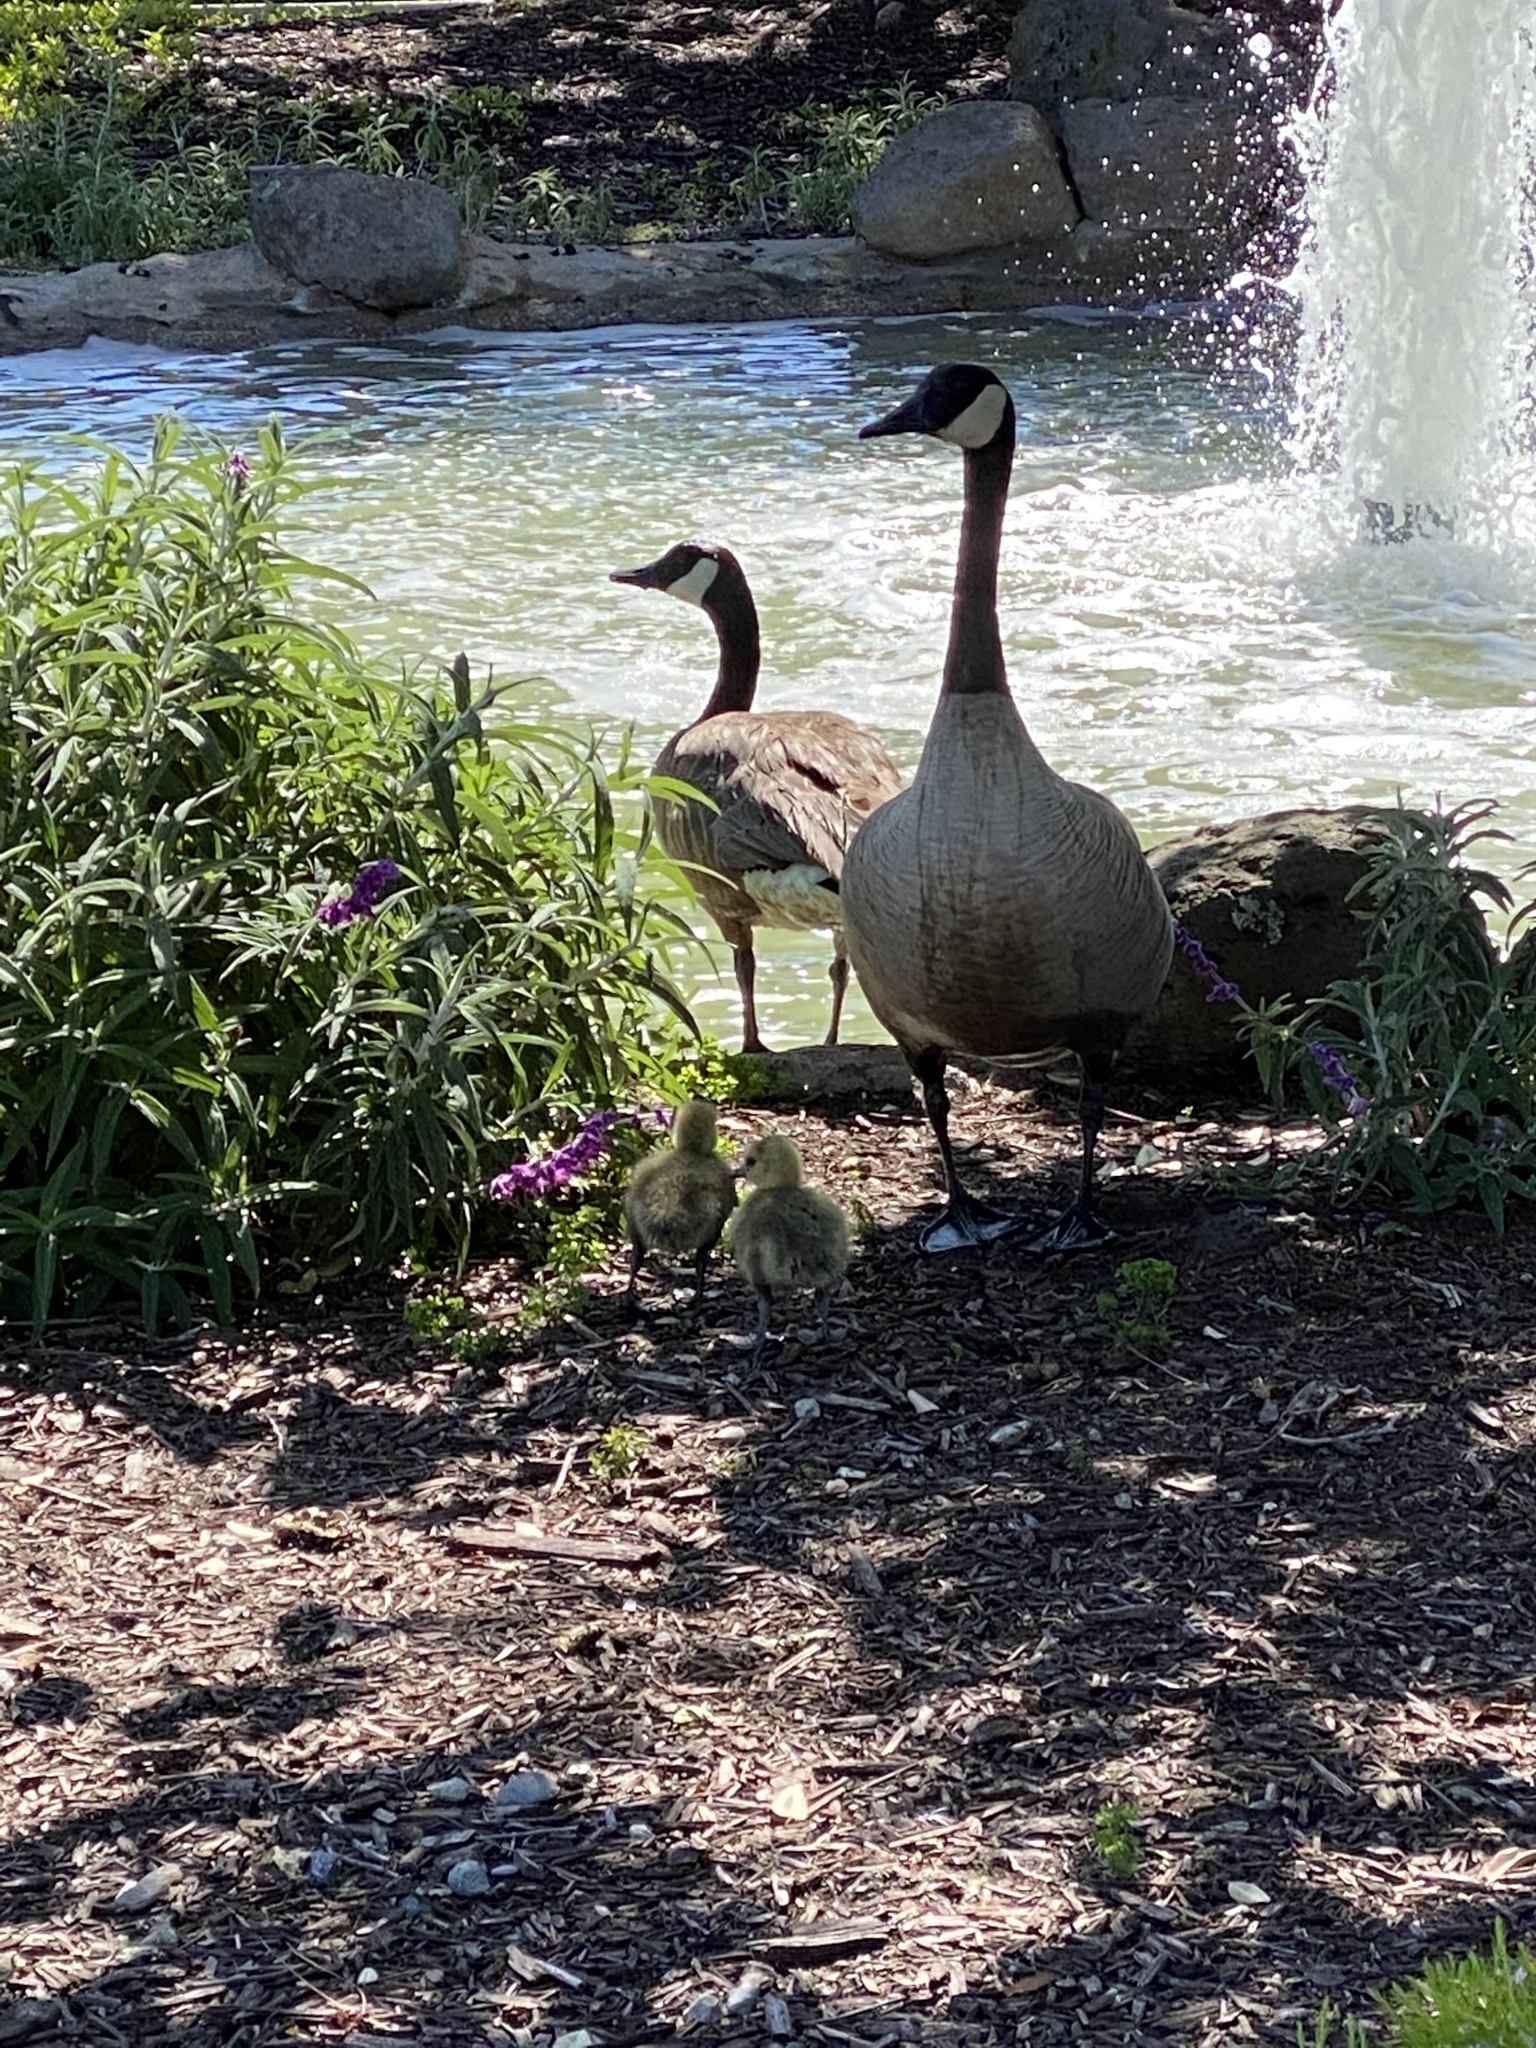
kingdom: Animalia
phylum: Chordata
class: Aves
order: Anseriformes
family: Anatidae
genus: Branta
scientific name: Branta canadensis
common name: Canada goose
